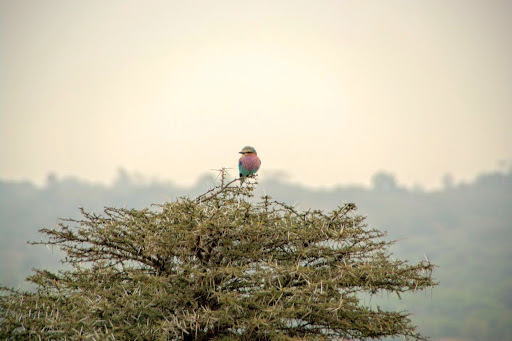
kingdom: Animalia
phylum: Chordata
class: Aves
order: Coraciiformes
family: Coraciidae
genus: Coracias
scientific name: Coracias caudatus
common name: Lilac-breasted roller
